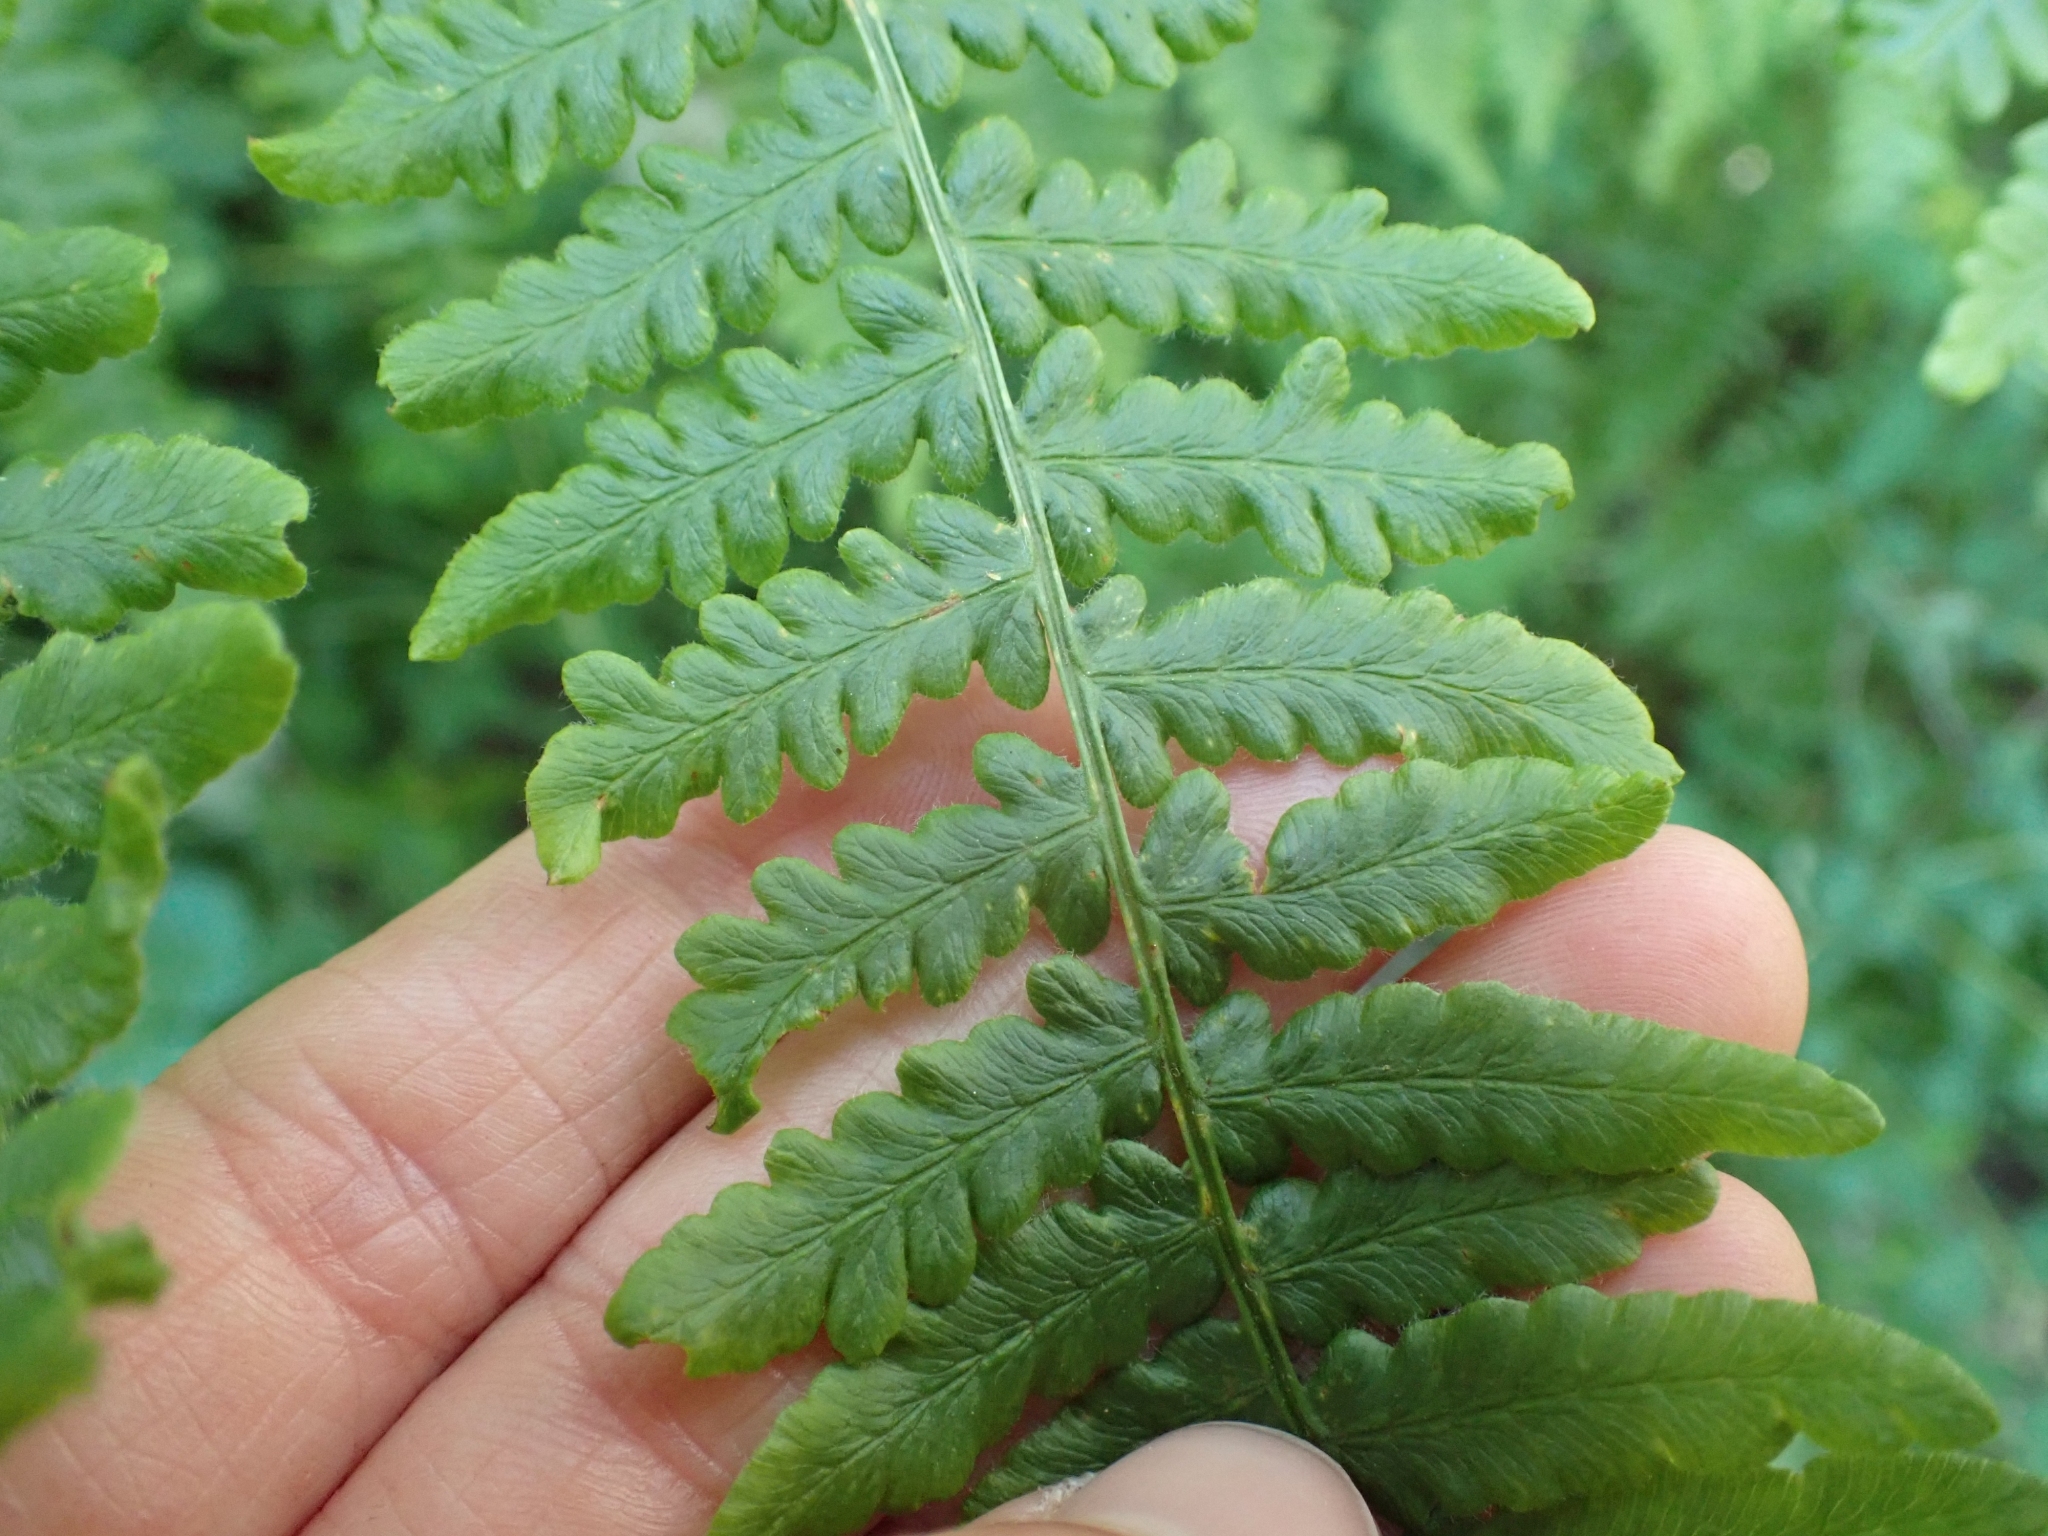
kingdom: Plantae
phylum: Tracheophyta
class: Polypodiopsida
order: Polypodiales
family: Dennstaedtiaceae
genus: Pteridium
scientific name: Pteridium aquilinum
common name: Bracken
